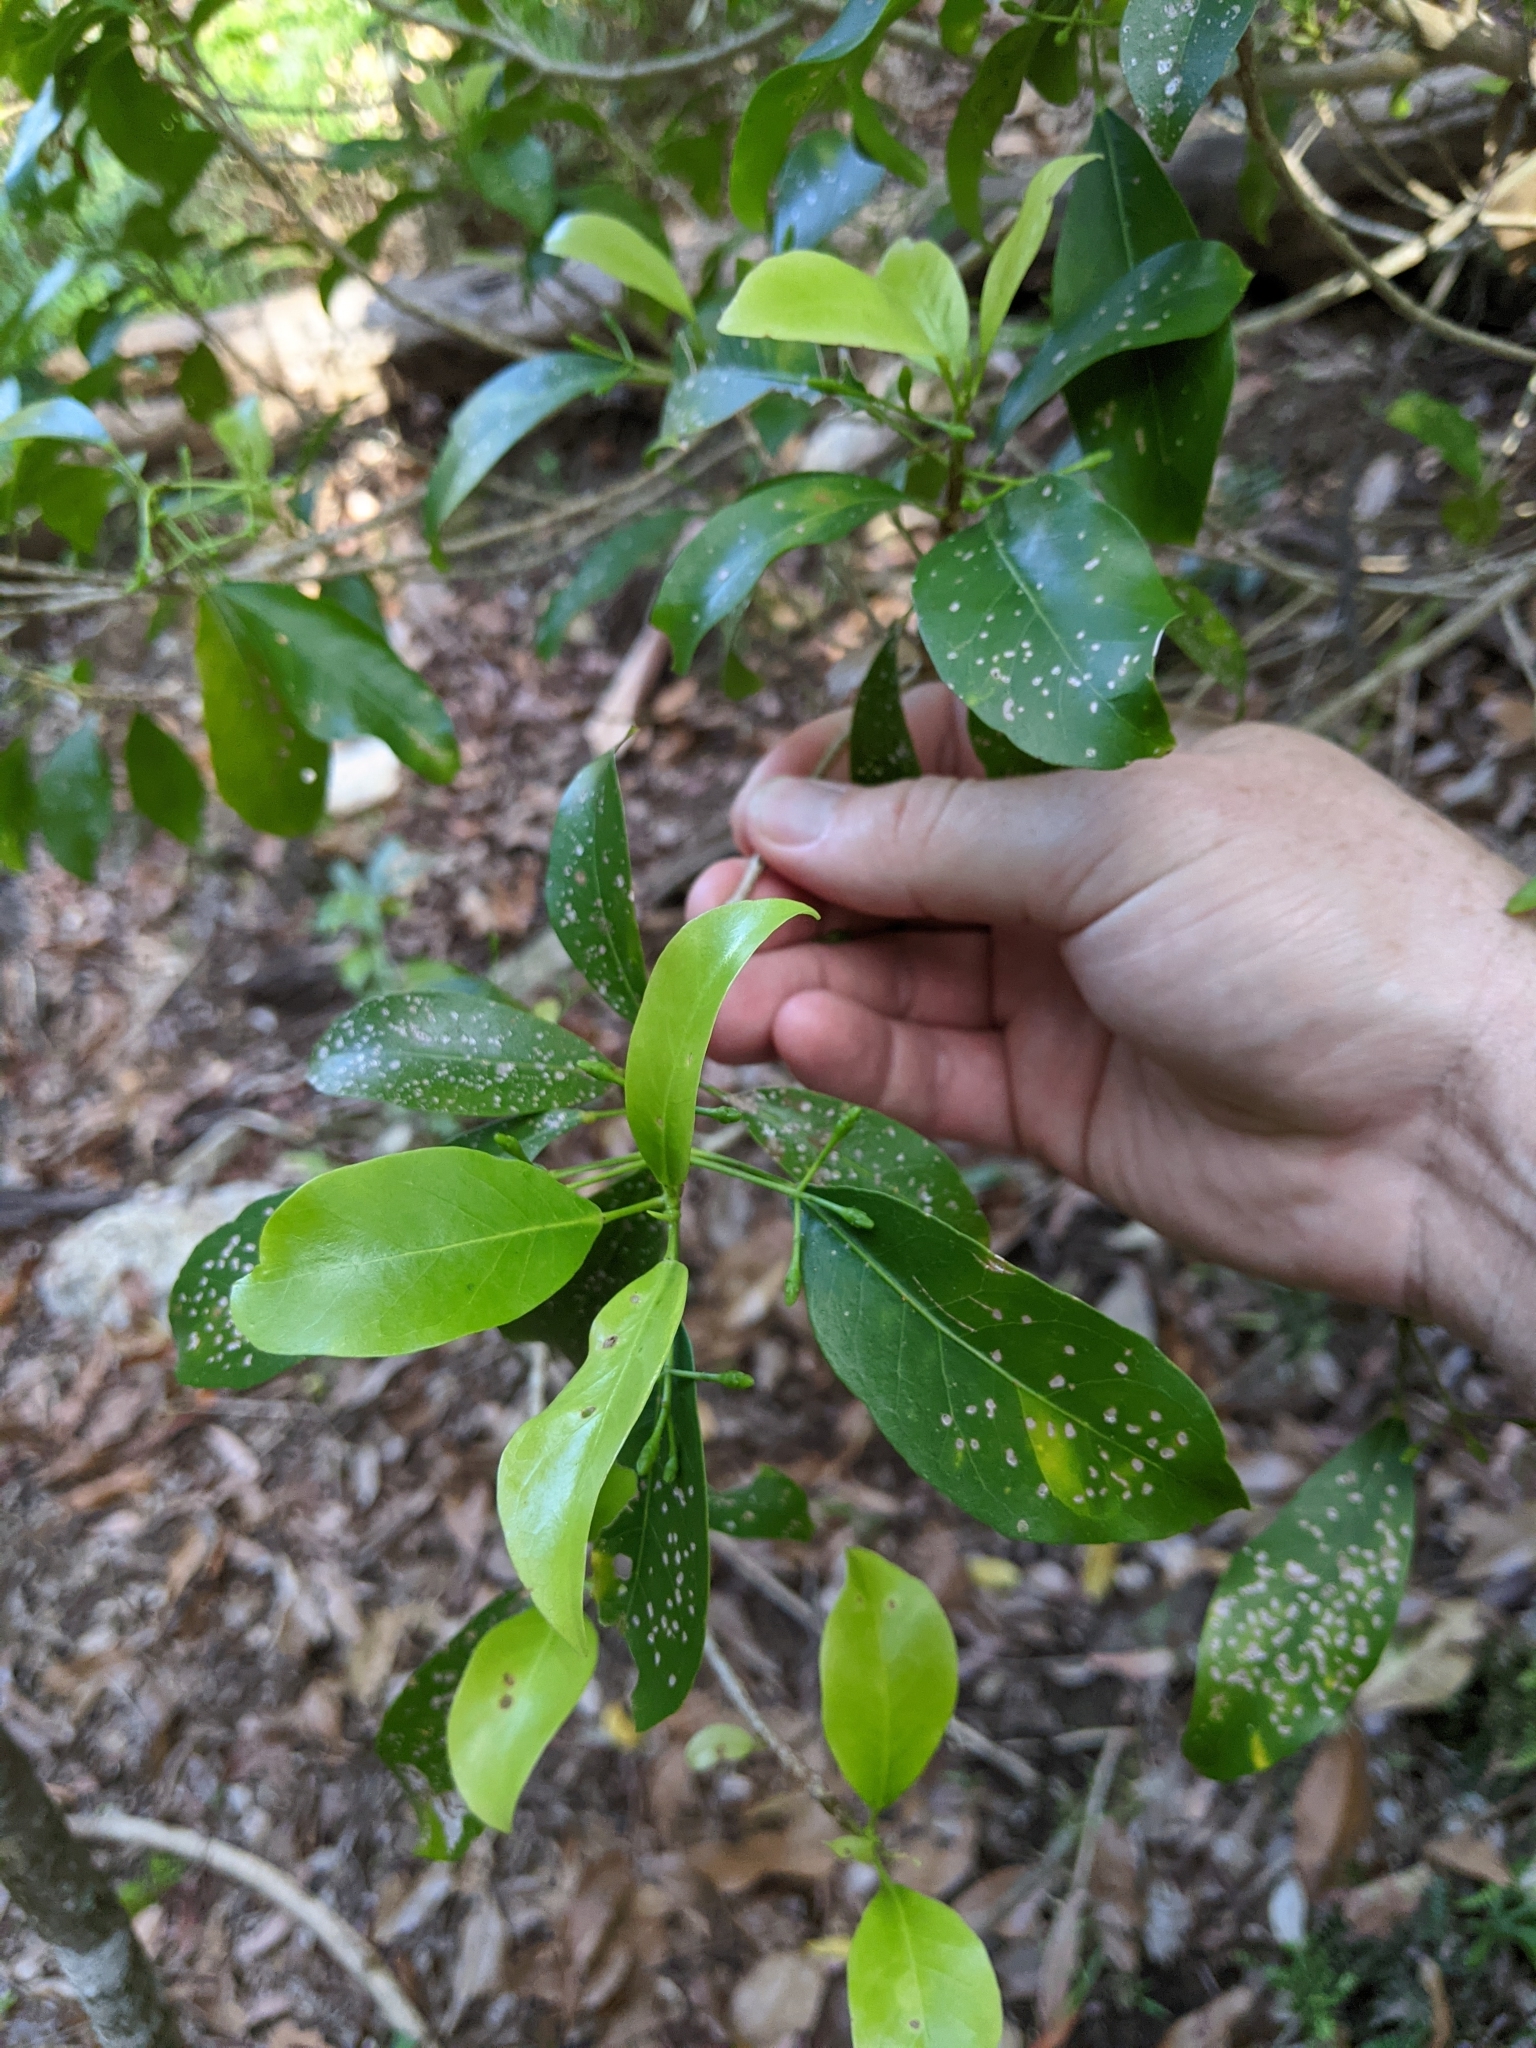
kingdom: Plantae
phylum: Tracheophyta
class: Magnoliopsida
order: Sapindales
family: Rutaceae
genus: Acronychia
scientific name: Acronychia laevis
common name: Hard aspen
